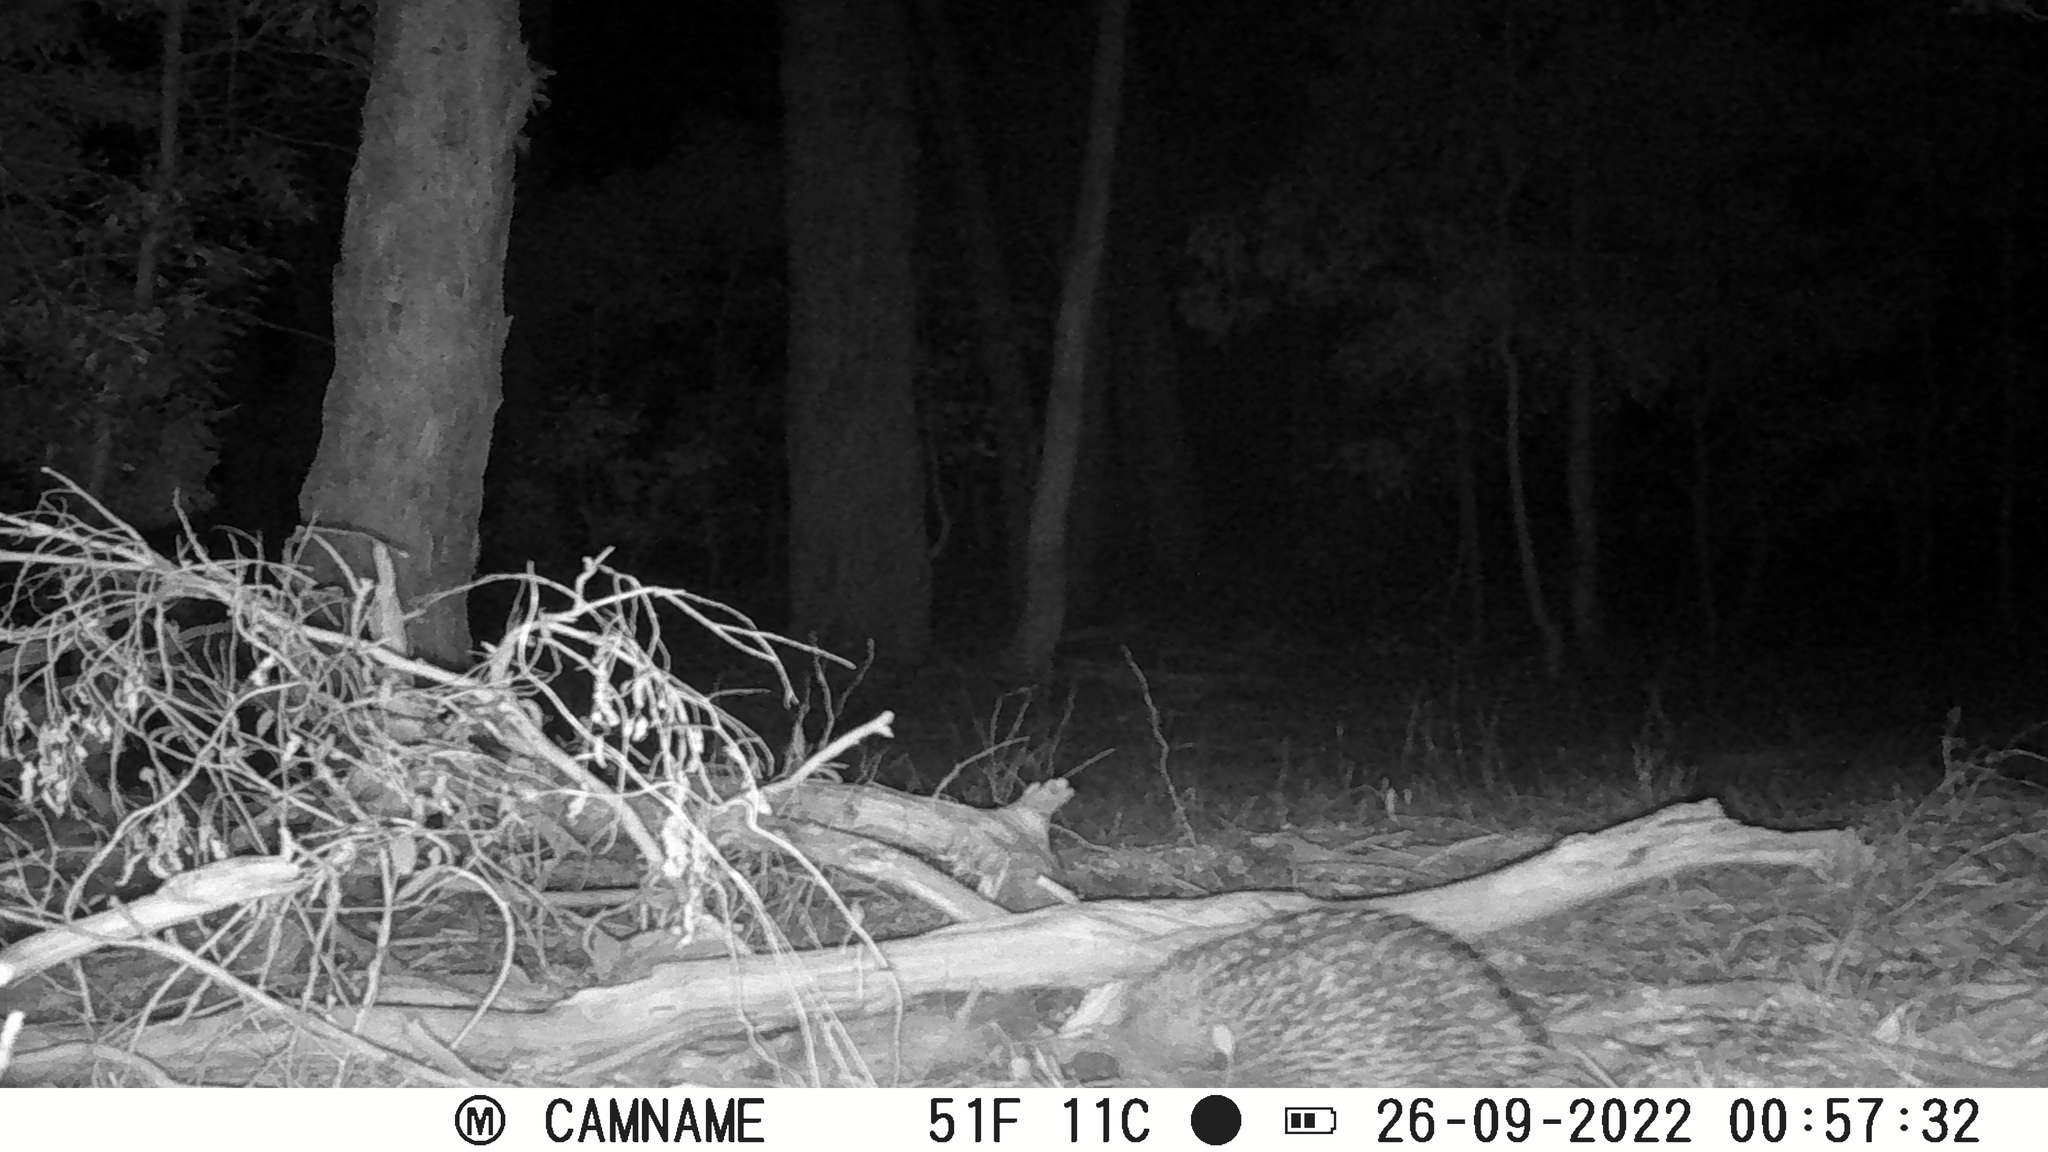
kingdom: Animalia
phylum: Chordata
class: Mammalia
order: Monotremata
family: Tachyglossidae
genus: Tachyglossus
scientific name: Tachyglossus aculeatus
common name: Short-beaked echidna
